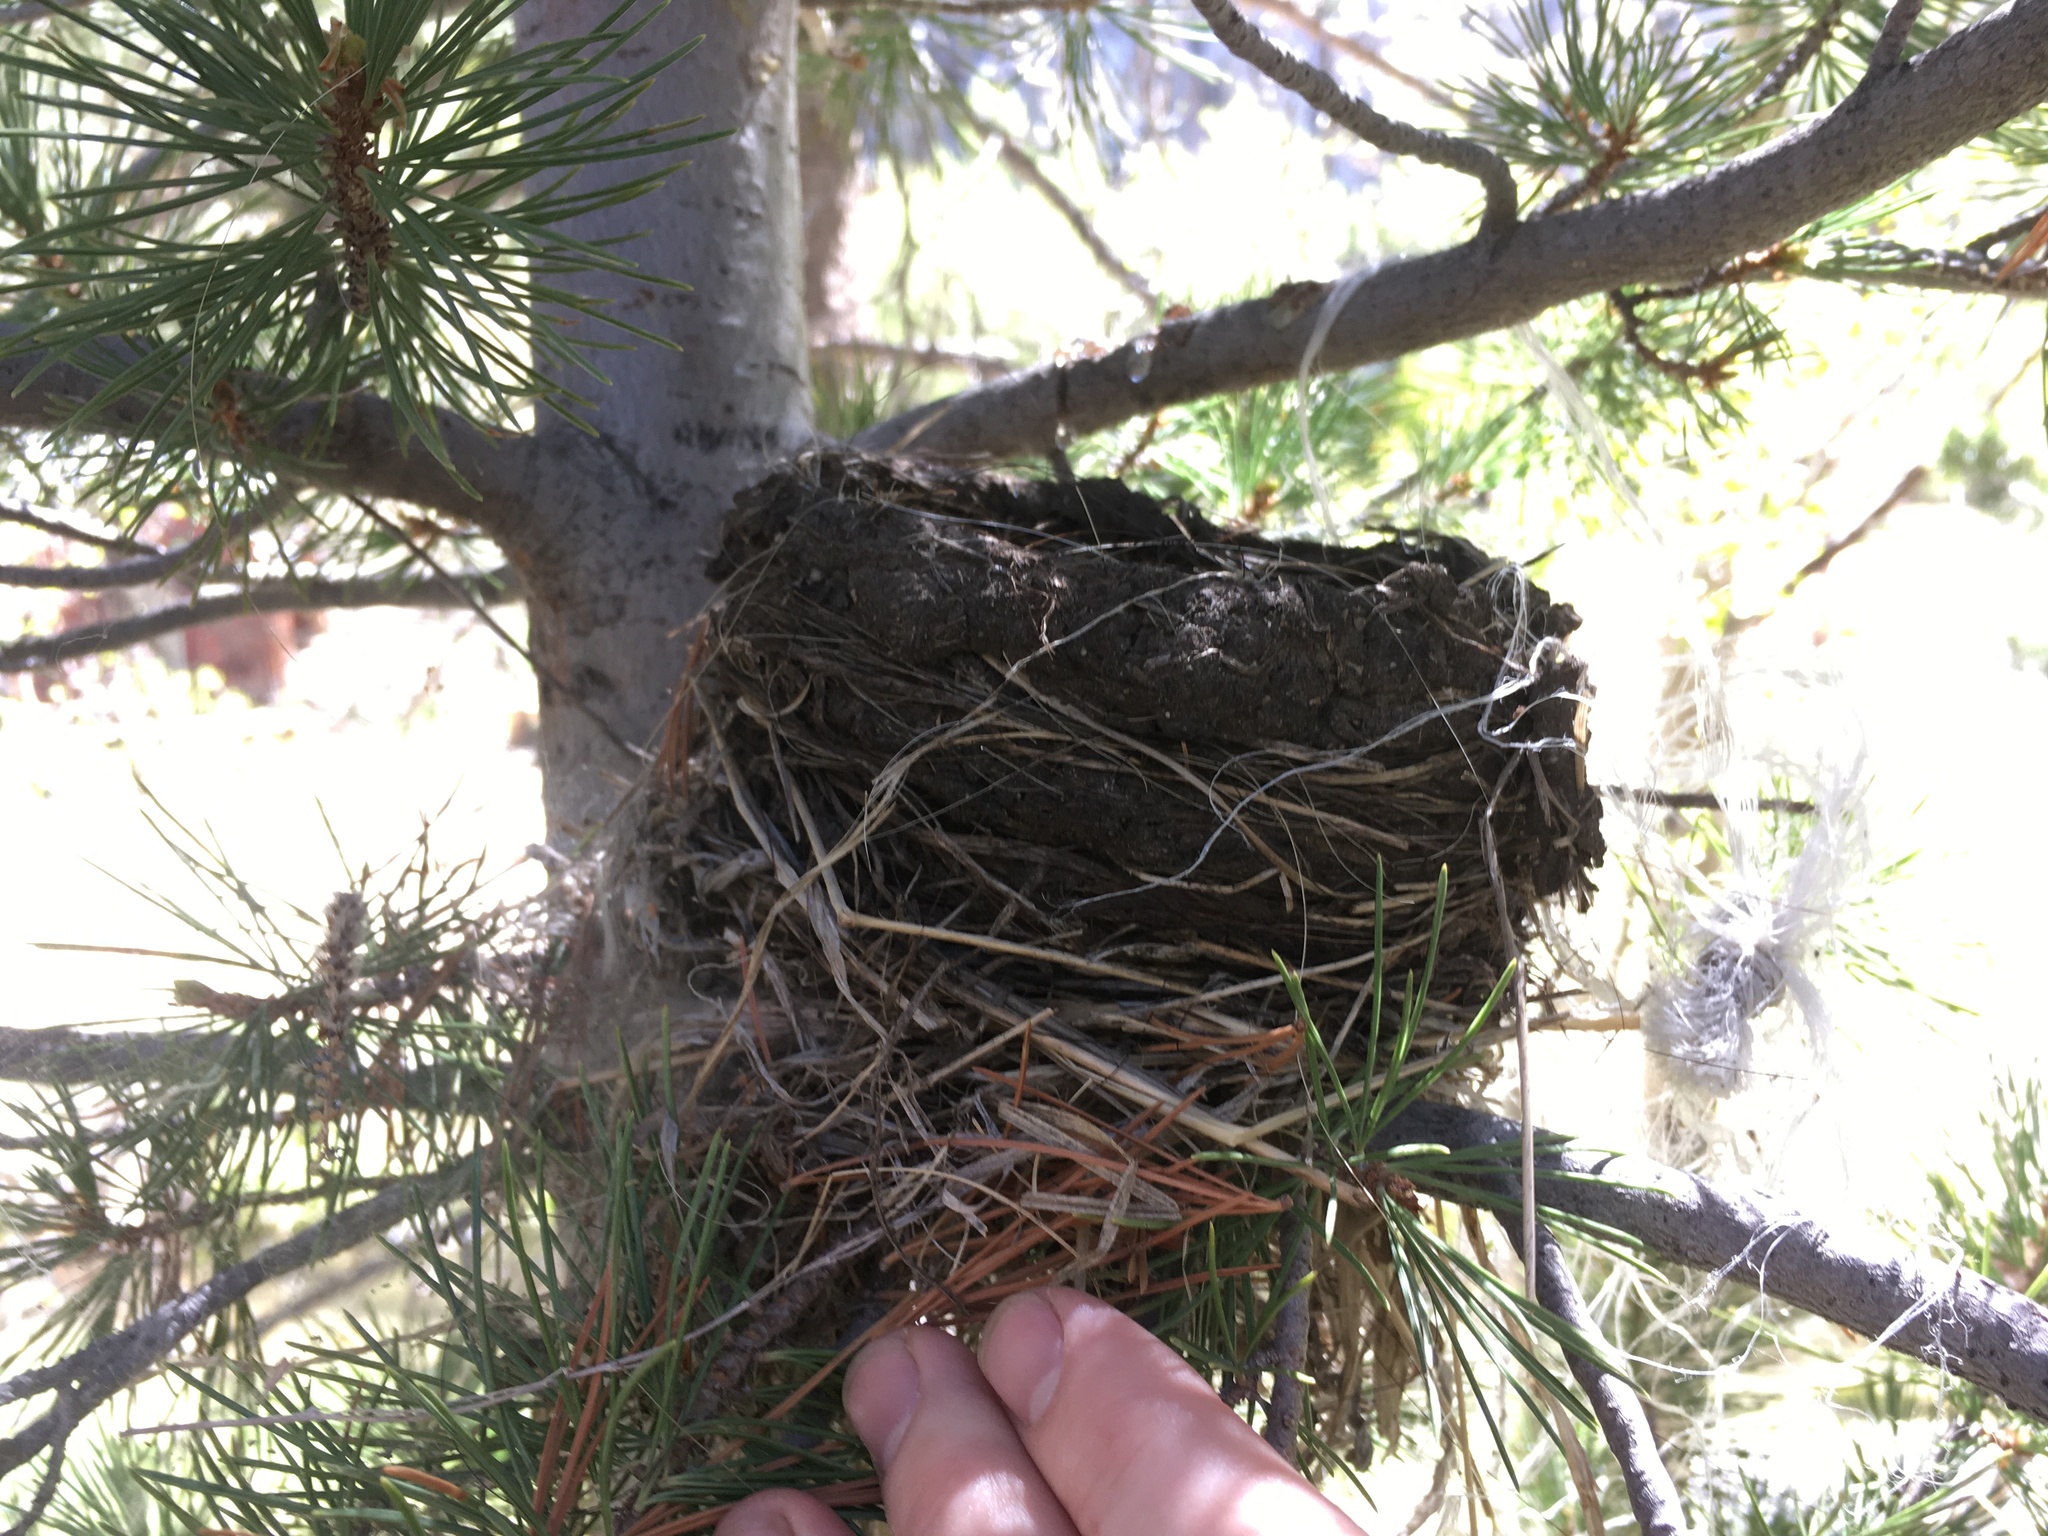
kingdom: Animalia
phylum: Chordata
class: Aves
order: Passeriformes
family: Turdidae
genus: Turdus
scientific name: Turdus migratorius
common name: American robin
